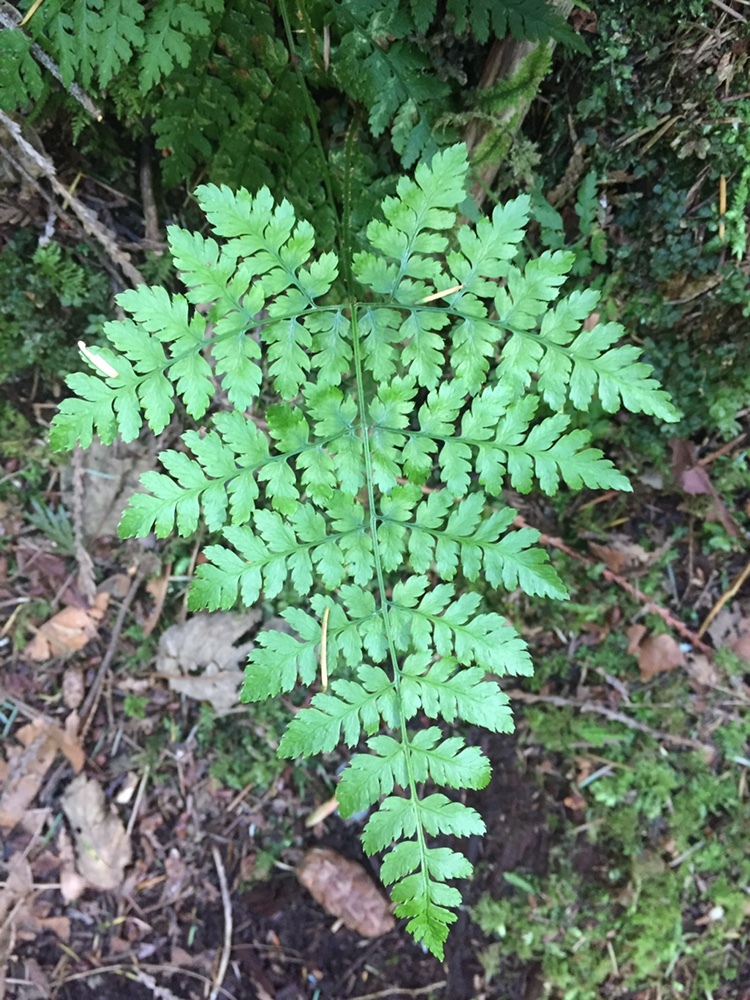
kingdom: Plantae
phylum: Tracheophyta
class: Polypodiopsida
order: Polypodiales
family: Dryopteridaceae
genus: Dryopteris
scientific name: Dryopteris expansa
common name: Northern buckler fern
